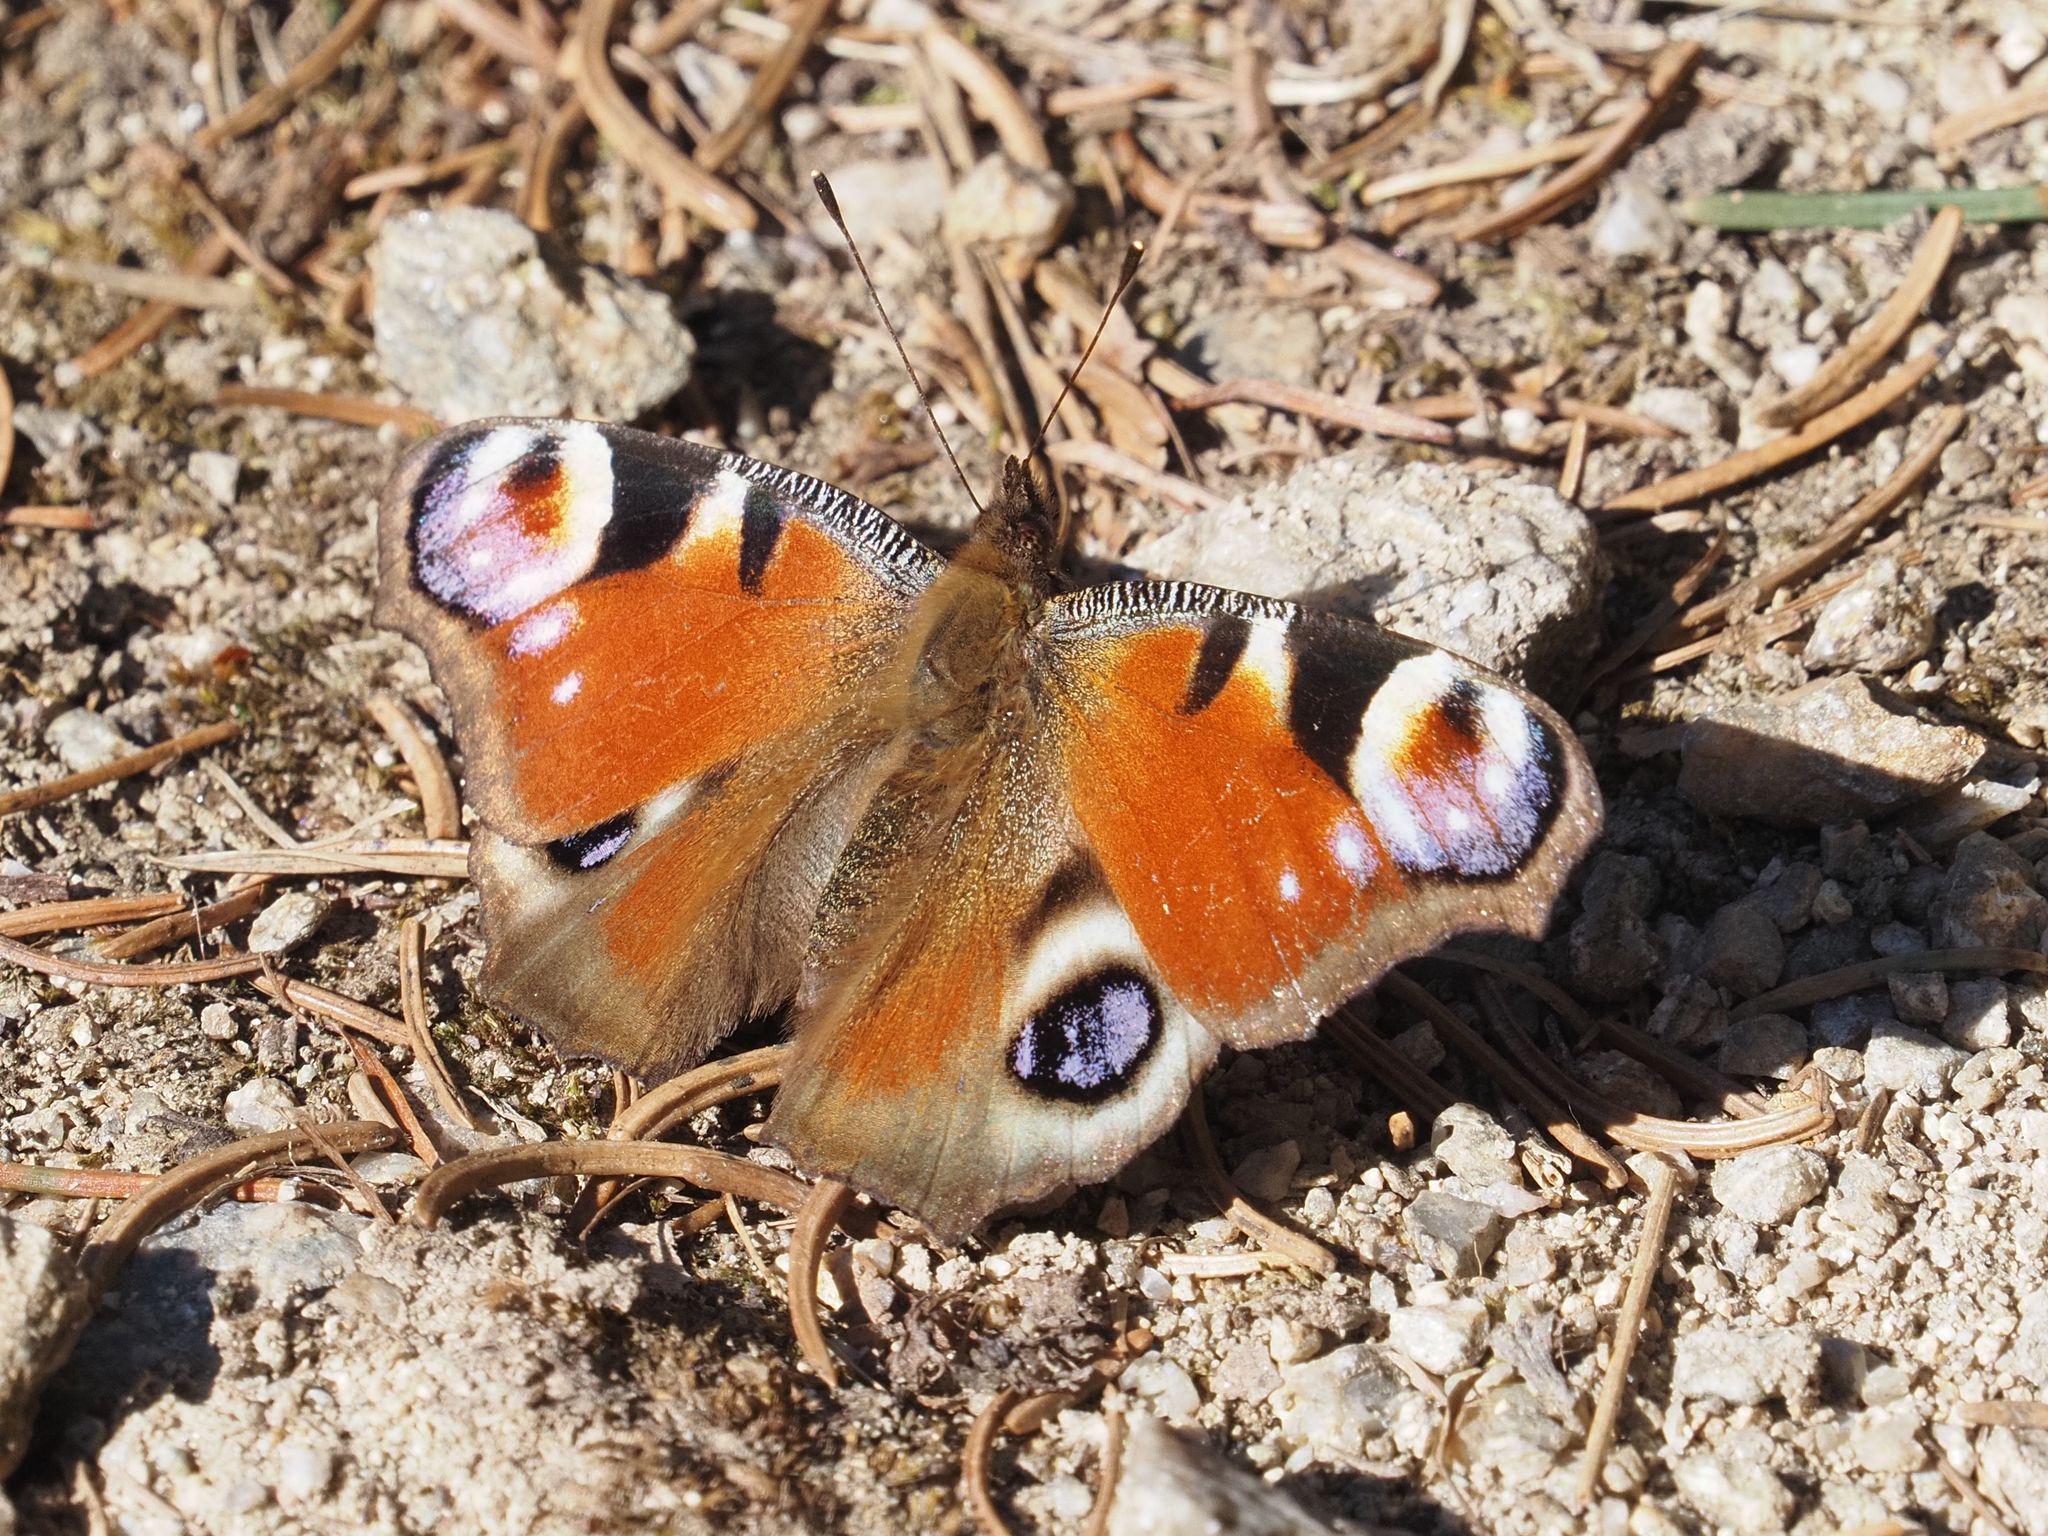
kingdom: Animalia
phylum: Arthropoda
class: Insecta
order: Lepidoptera
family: Nymphalidae
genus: Aglais
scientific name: Aglais io
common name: Peacock
